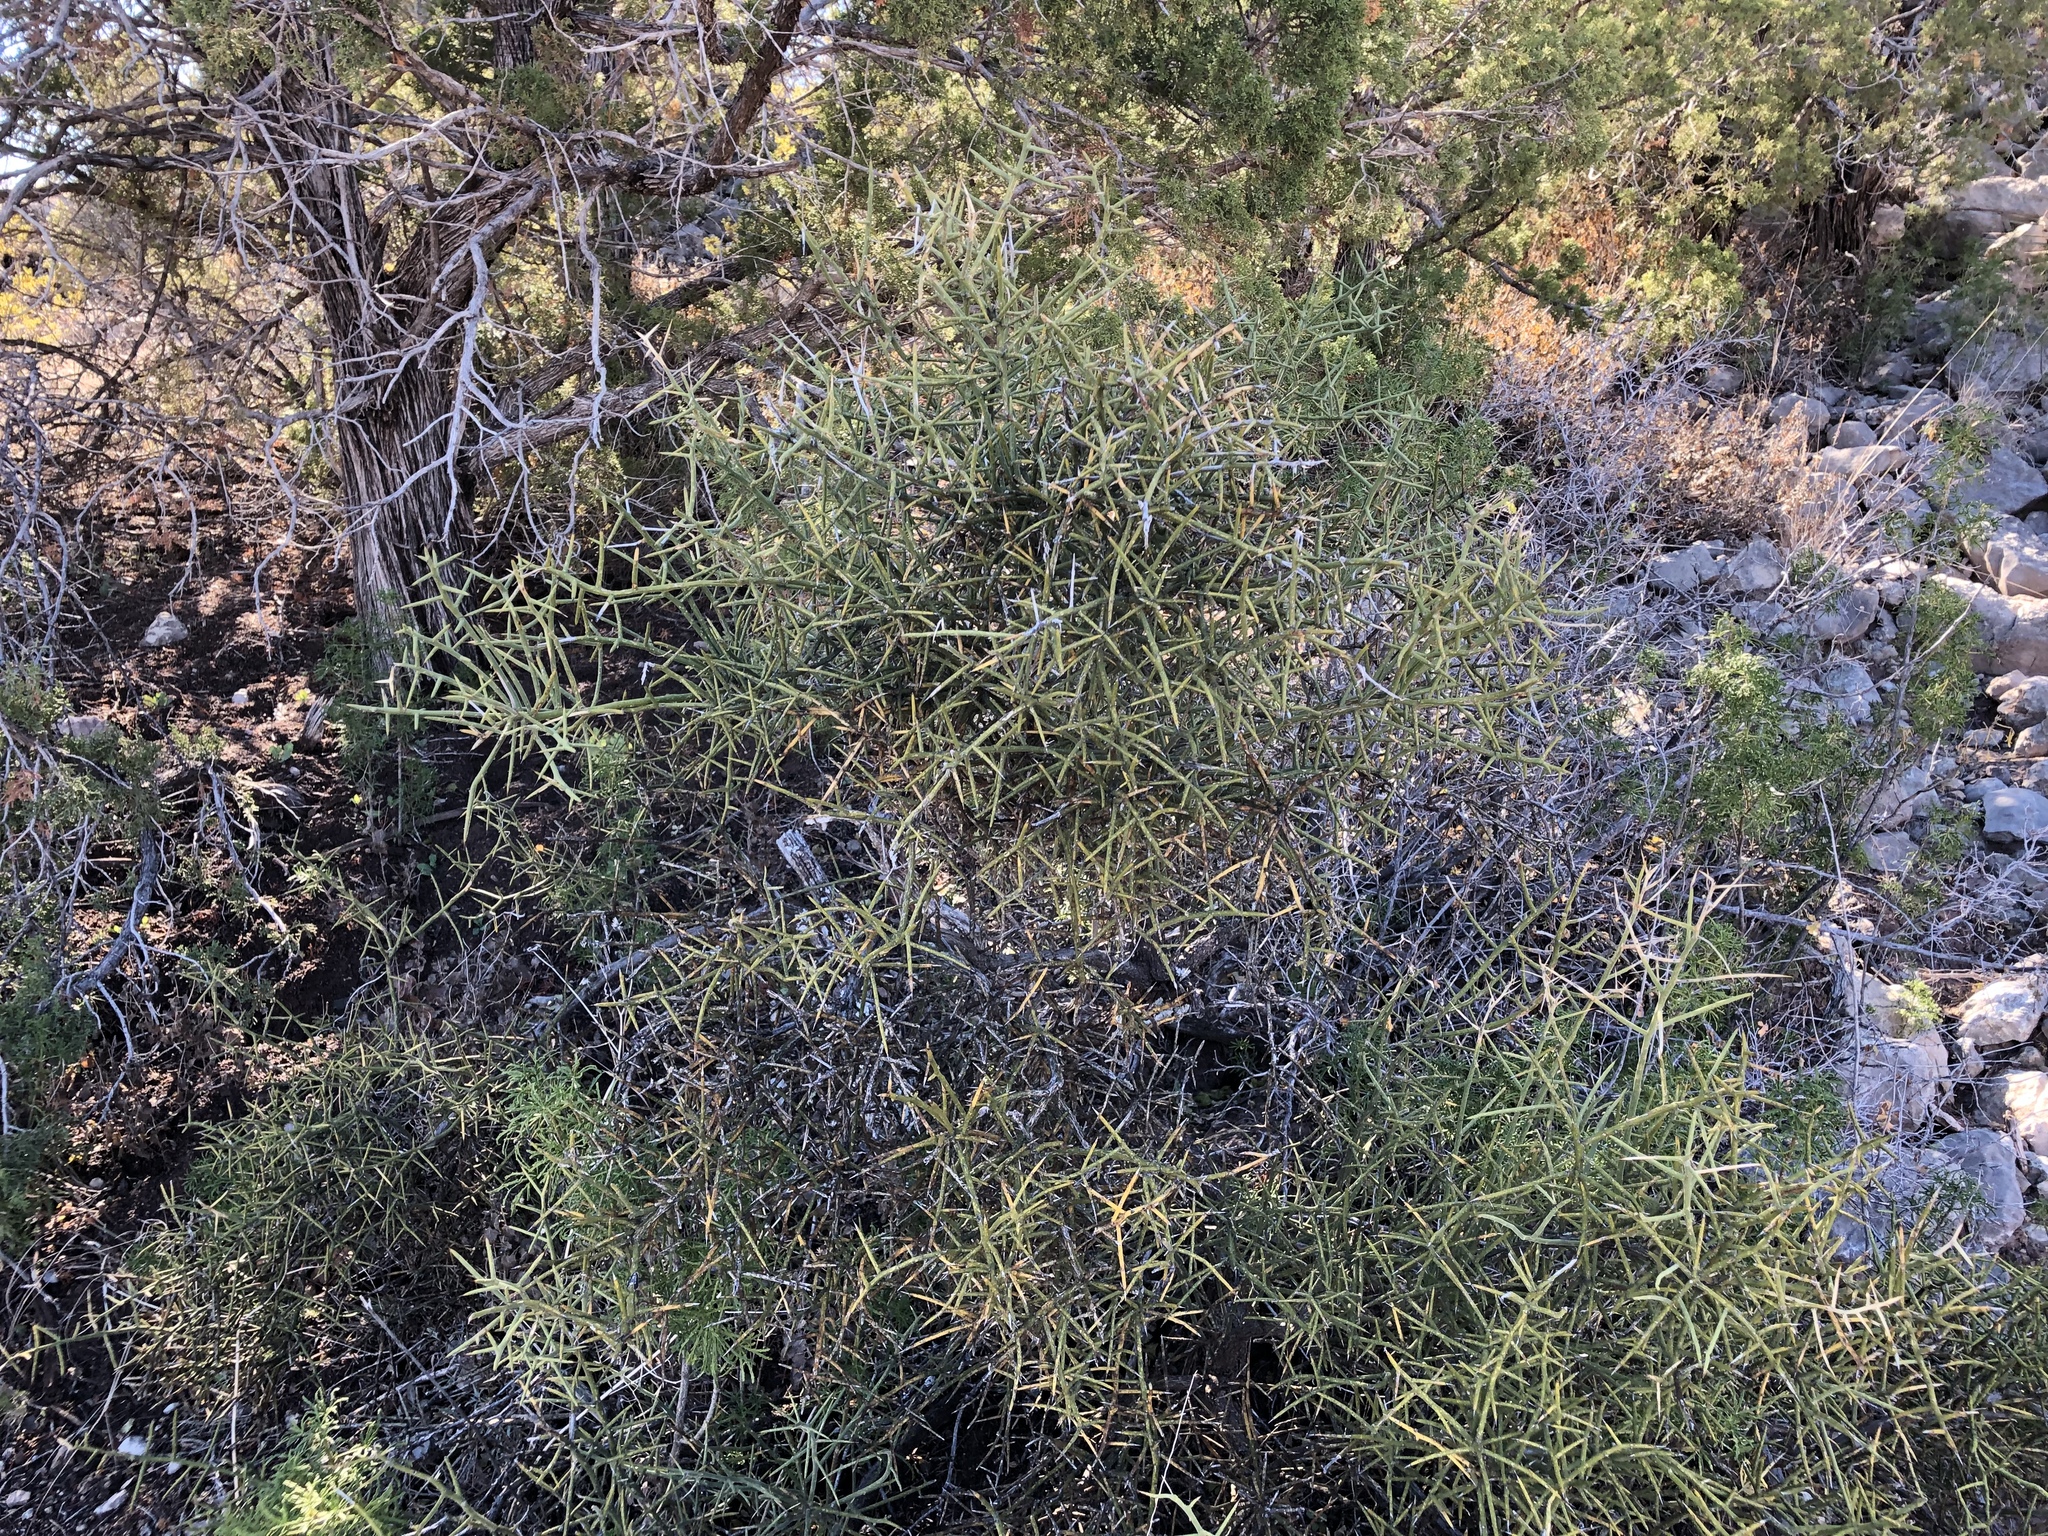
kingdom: Plantae
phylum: Tracheophyta
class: Magnoliopsida
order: Brassicales
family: Koeberliniaceae
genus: Koeberlinia
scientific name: Koeberlinia spinosa
